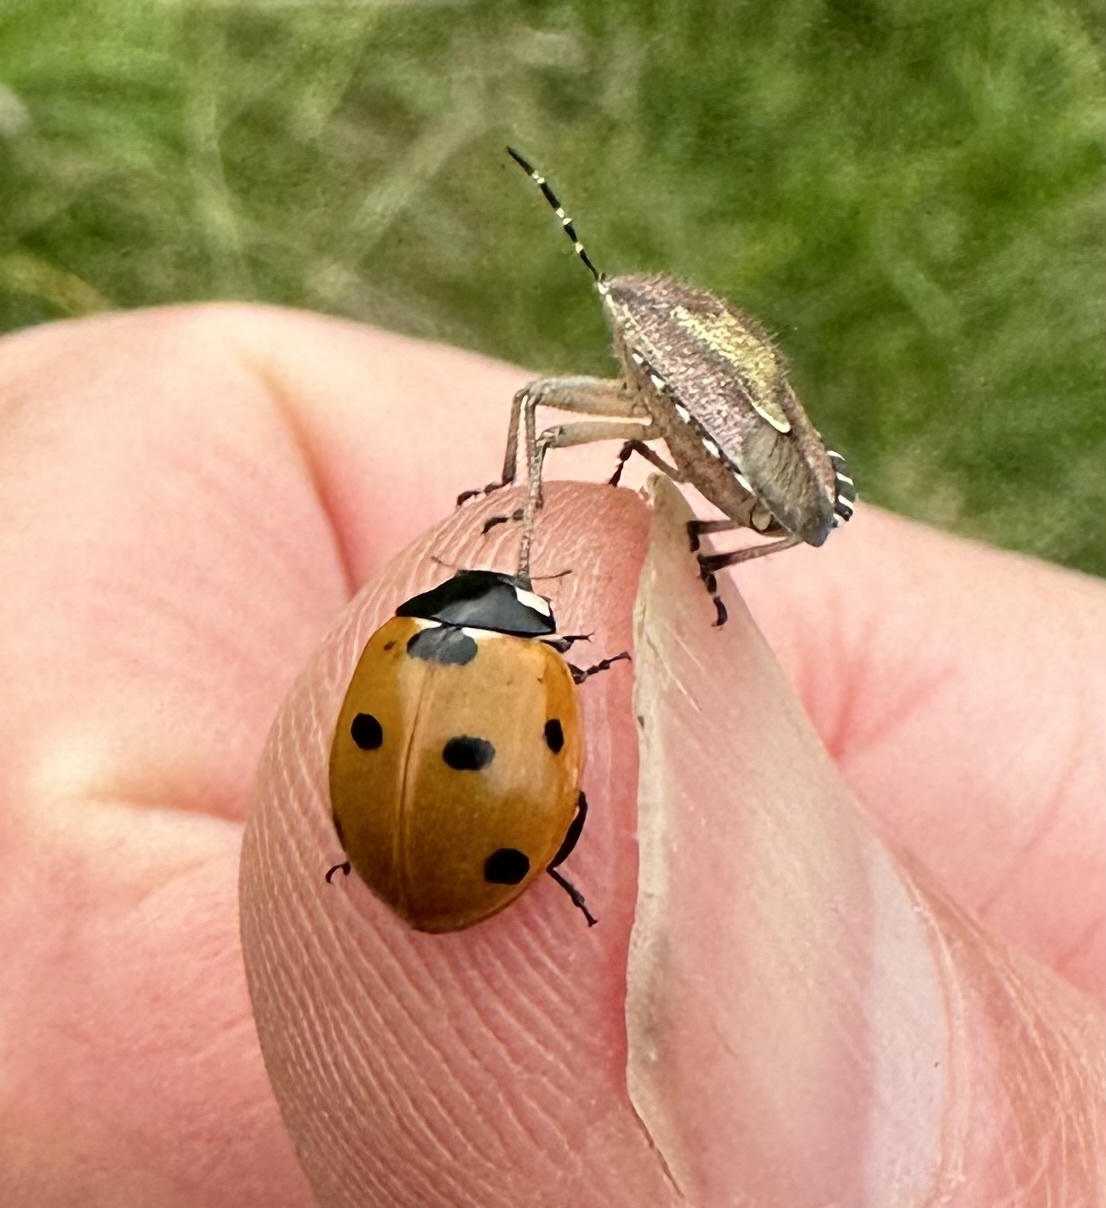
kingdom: Animalia
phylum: Arthropoda
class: Insecta
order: Coleoptera
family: Coccinellidae
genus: Coccinella
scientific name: Coccinella septempunctata
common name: Sevenspotted lady beetle
